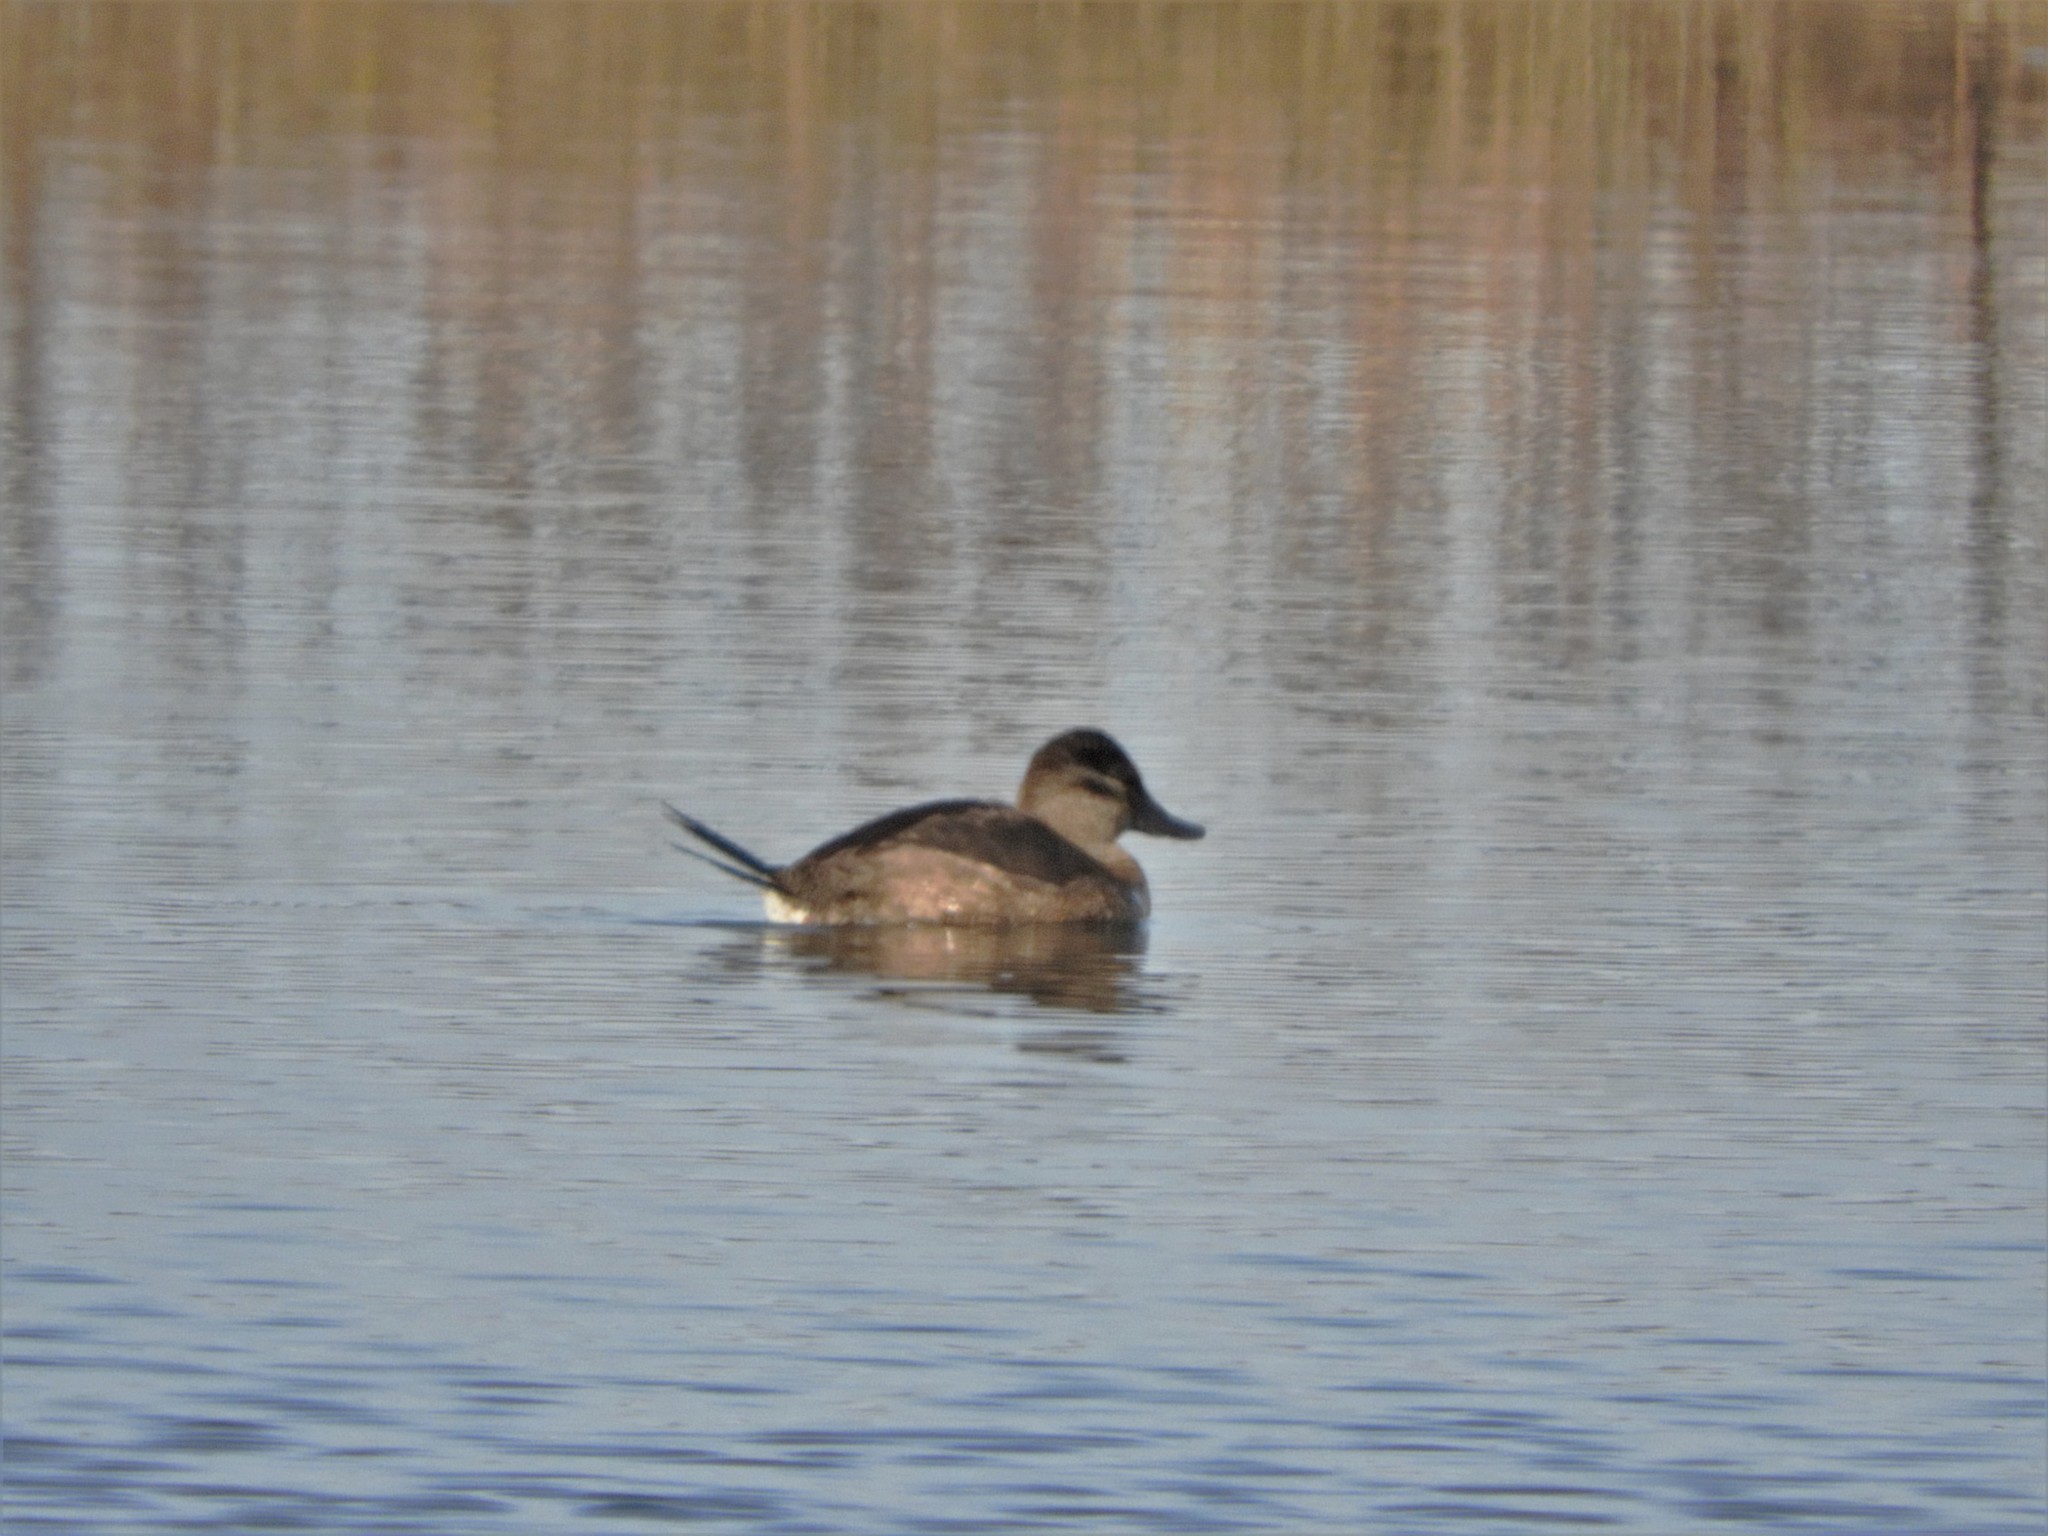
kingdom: Animalia
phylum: Chordata
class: Aves
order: Anseriformes
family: Anatidae
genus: Oxyura
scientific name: Oxyura jamaicensis
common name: Ruddy duck
